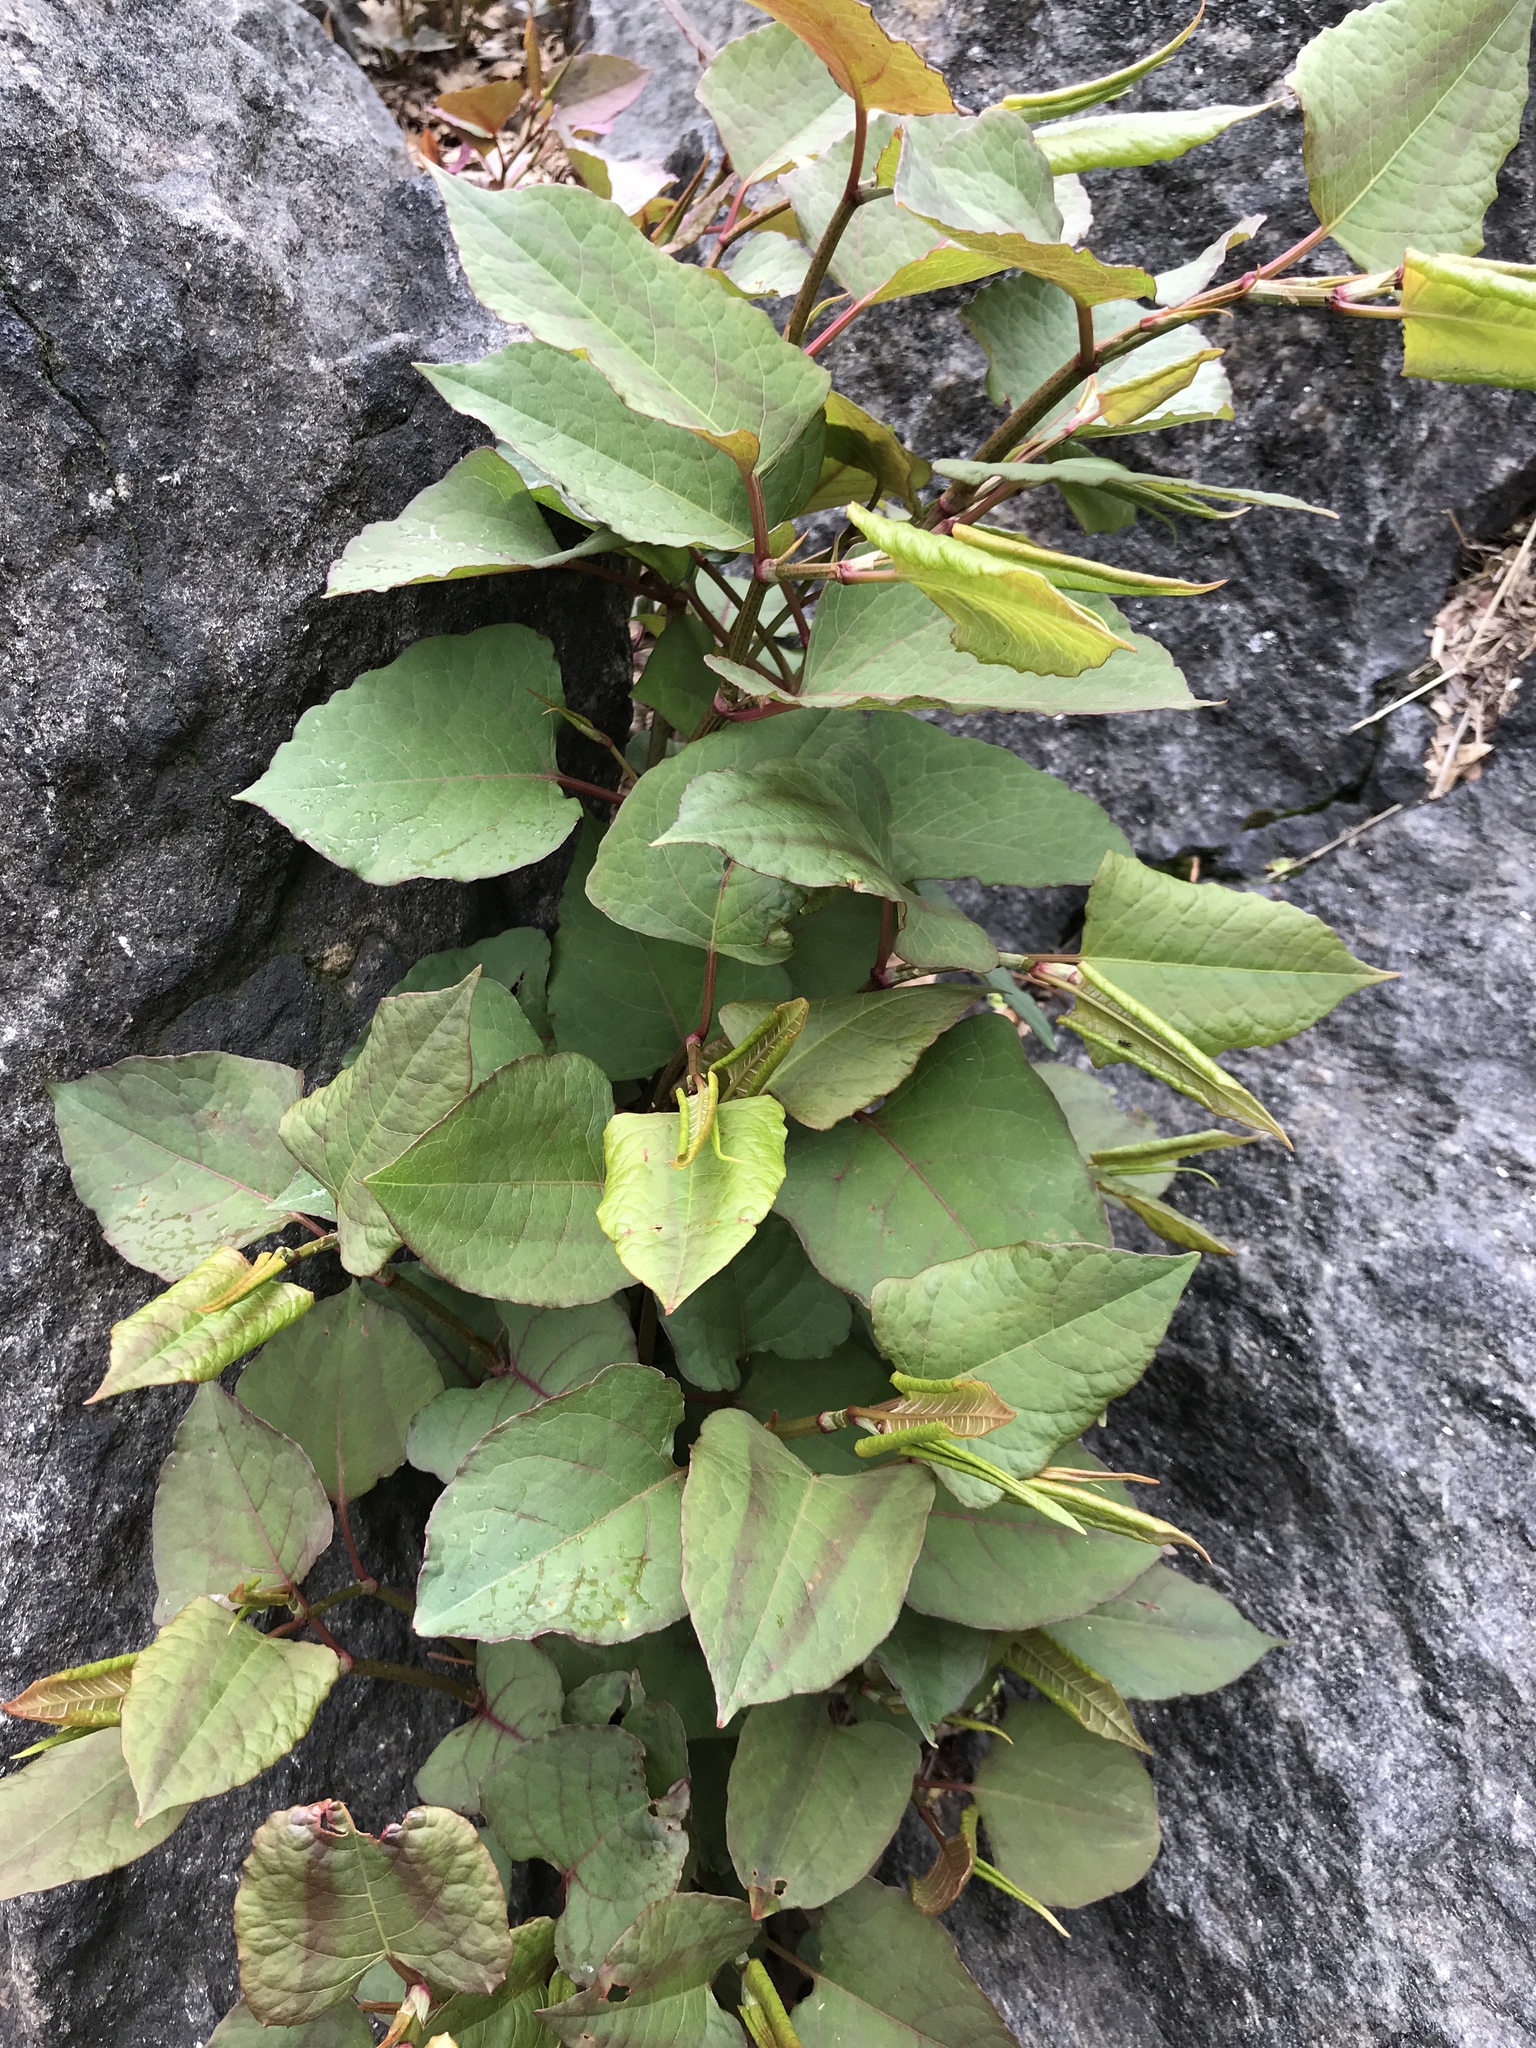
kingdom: Plantae
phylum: Tracheophyta
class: Magnoliopsida
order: Caryophyllales
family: Polygonaceae
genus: Reynoutria
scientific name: Reynoutria japonica
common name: Japanese knotweed
